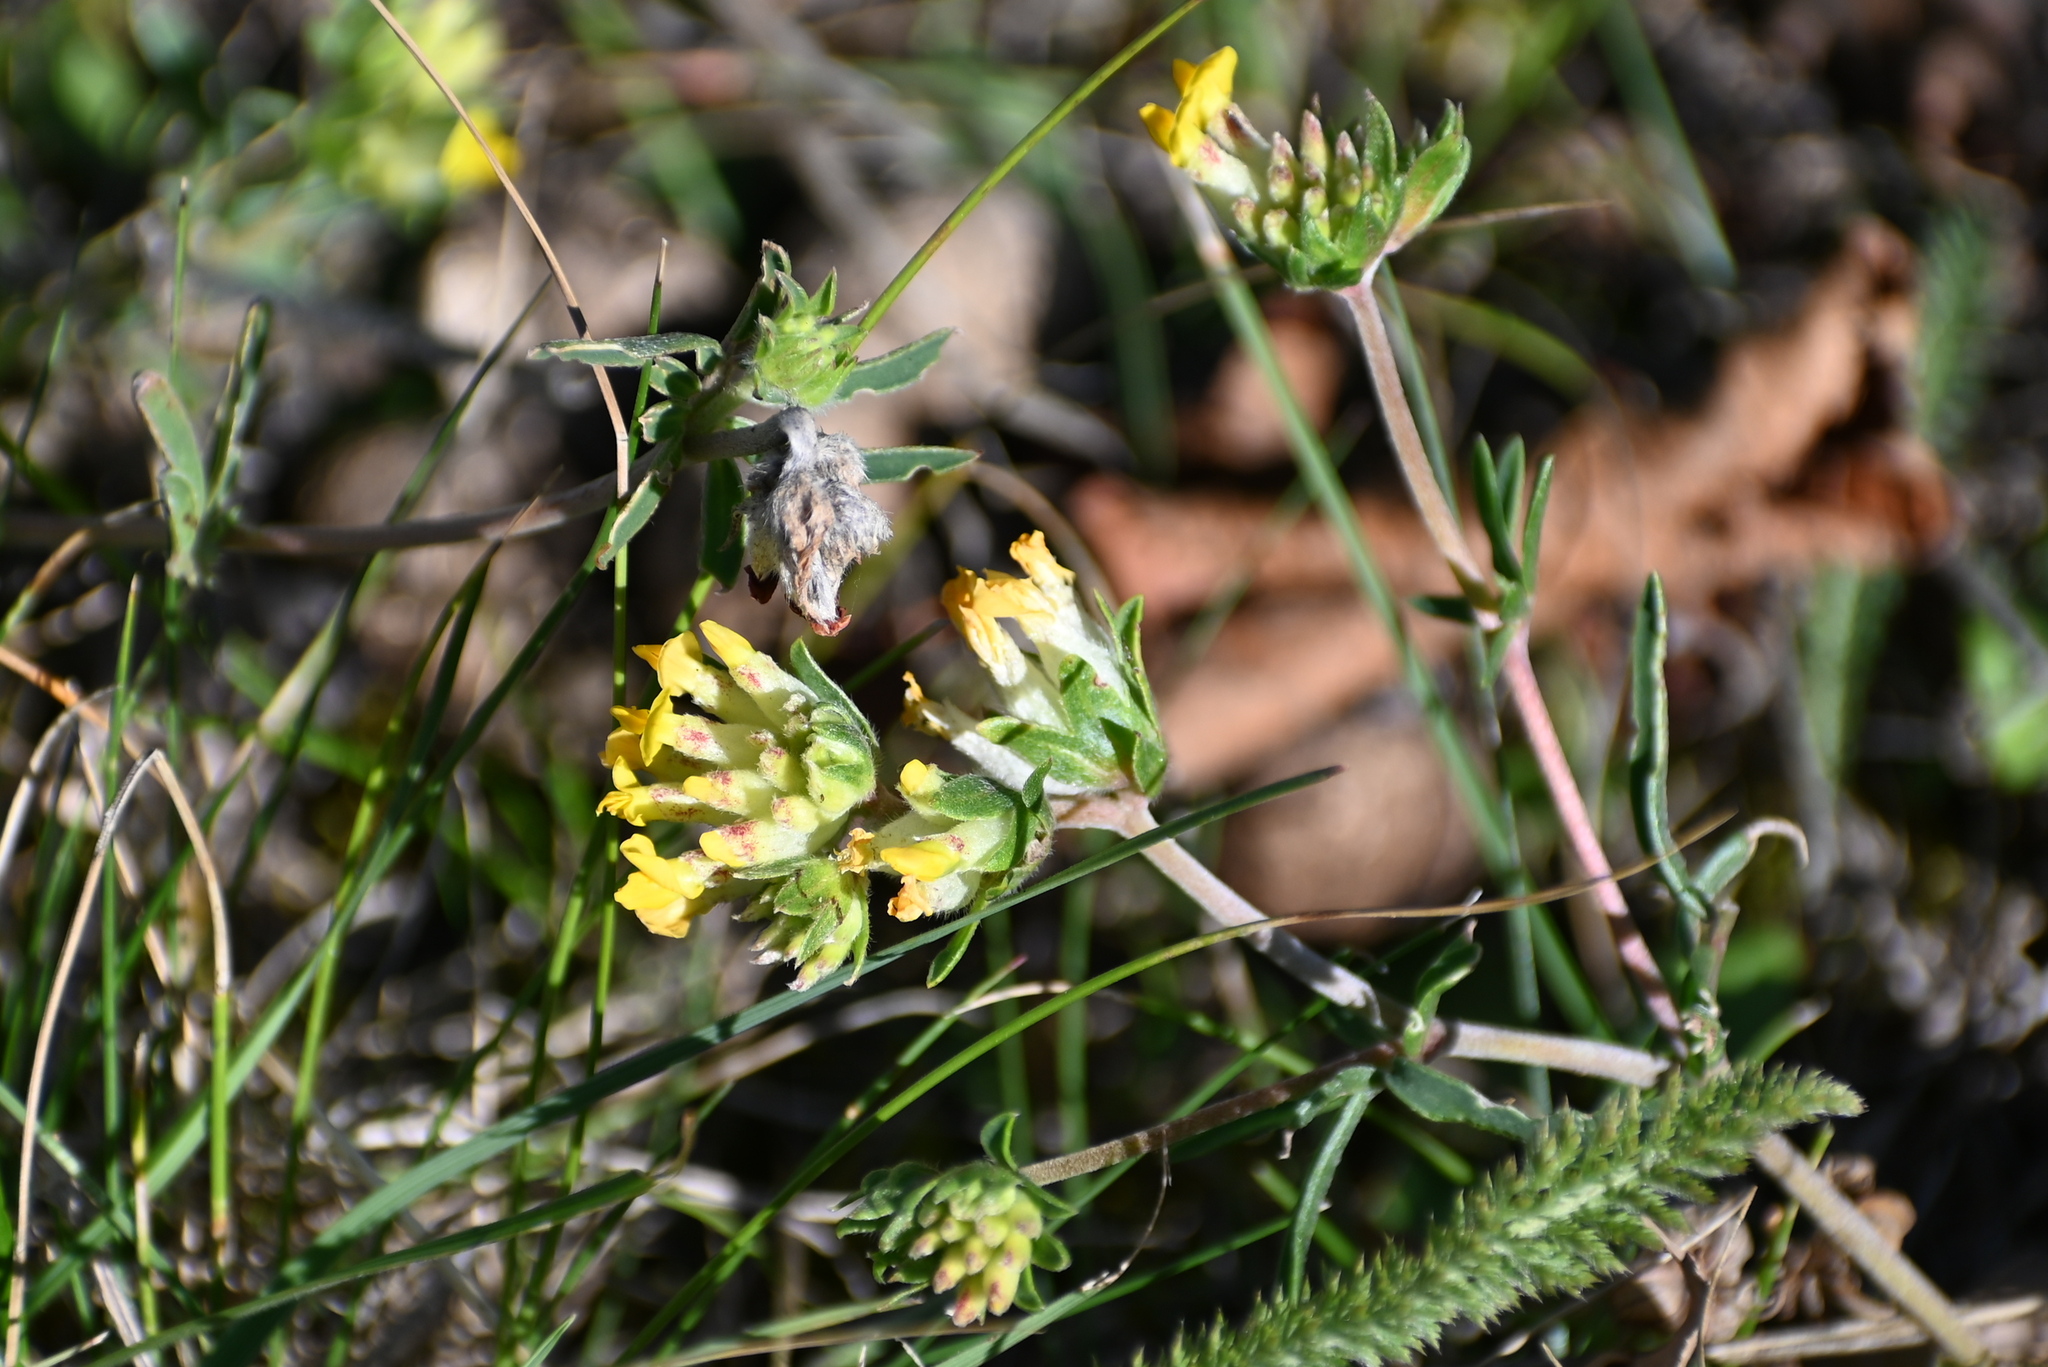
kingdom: Plantae
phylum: Tracheophyta
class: Magnoliopsida
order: Fabales
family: Fabaceae
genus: Anthyllis
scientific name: Anthyllis vulneraria
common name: Kidney vetch
